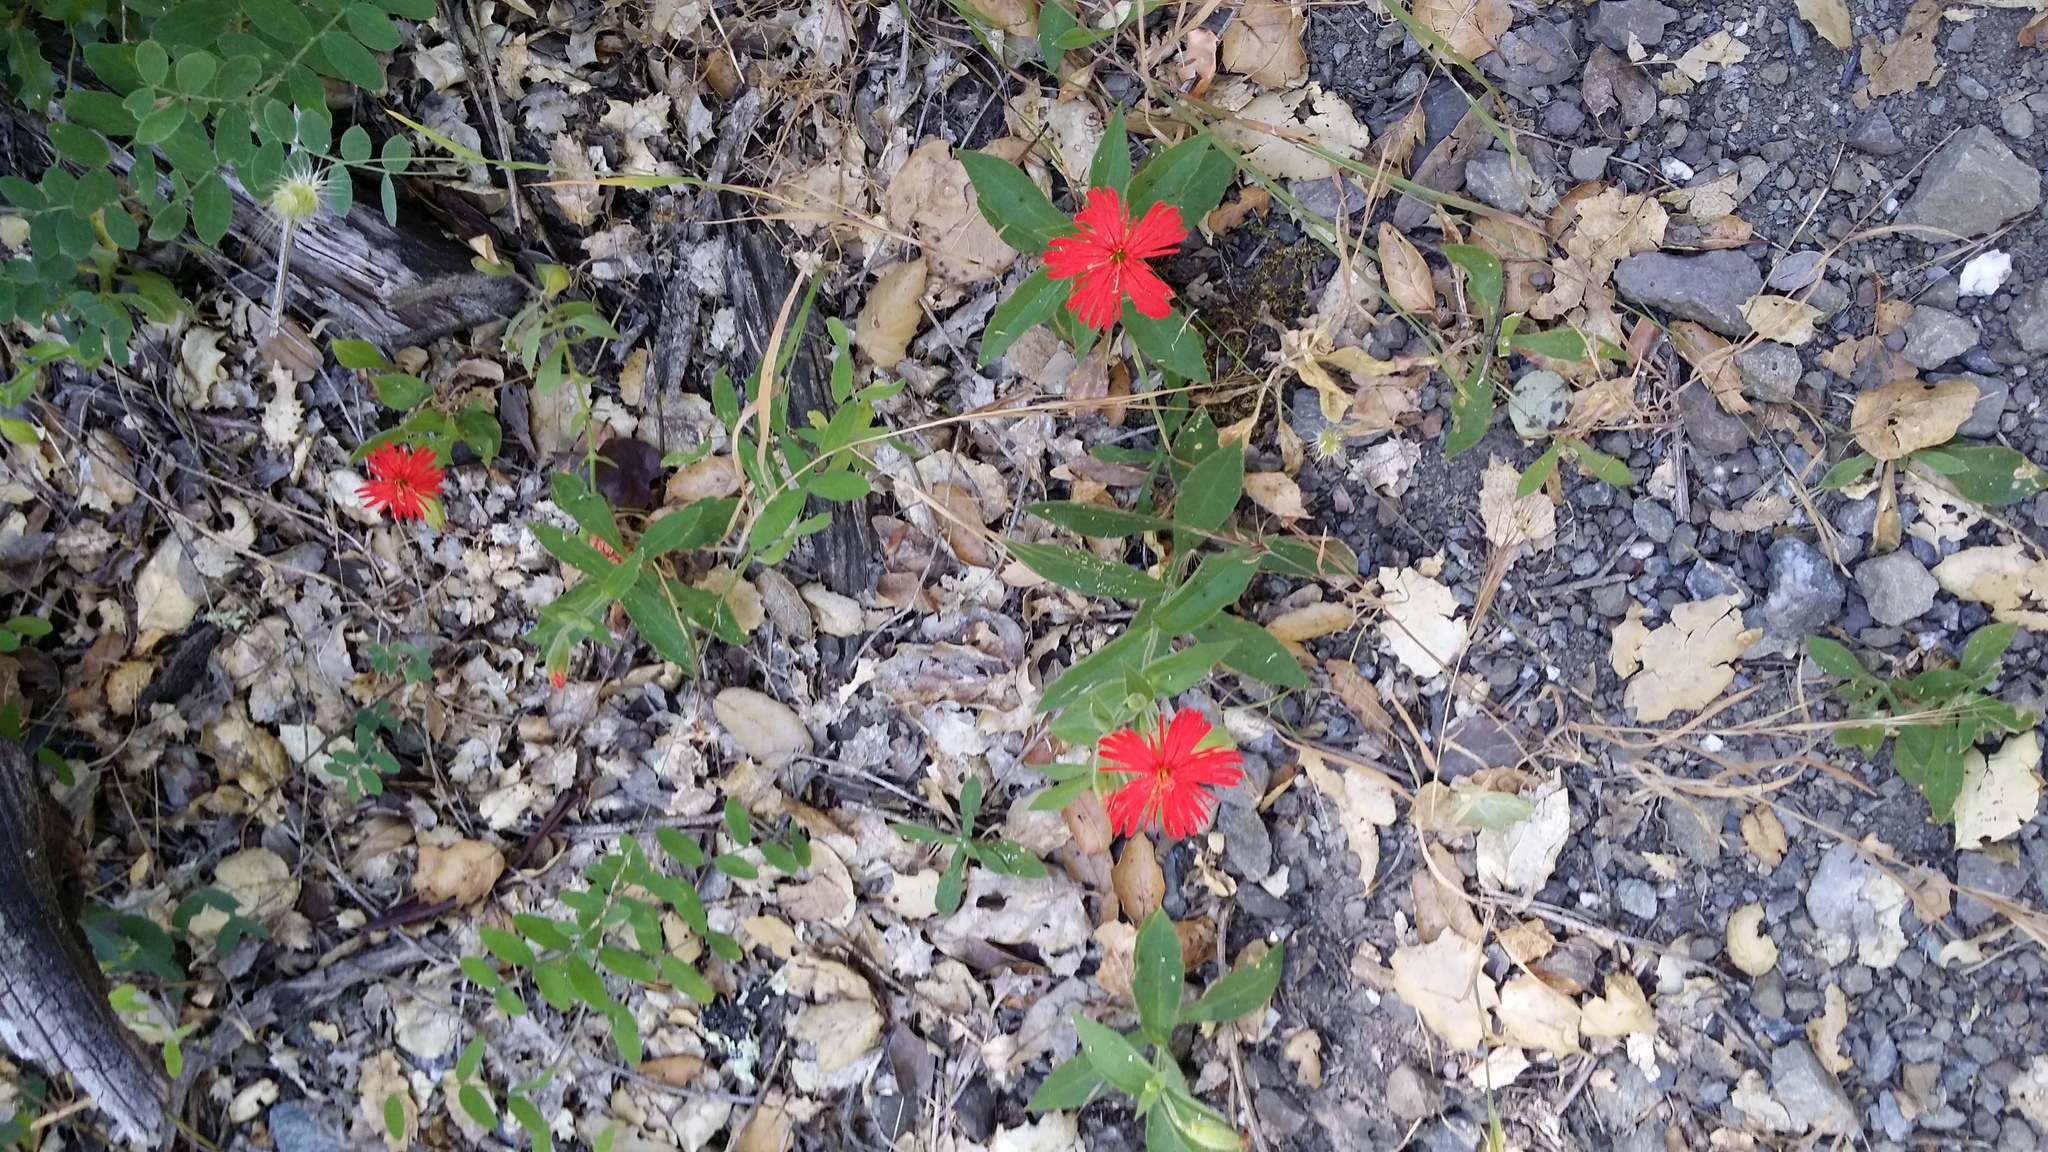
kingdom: Plantae
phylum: Tracheophyta
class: Magnoliopsida
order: Caryophyllales
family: Caryophyllaceae
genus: Silene
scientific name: Silene laciniata
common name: Indian-pink
